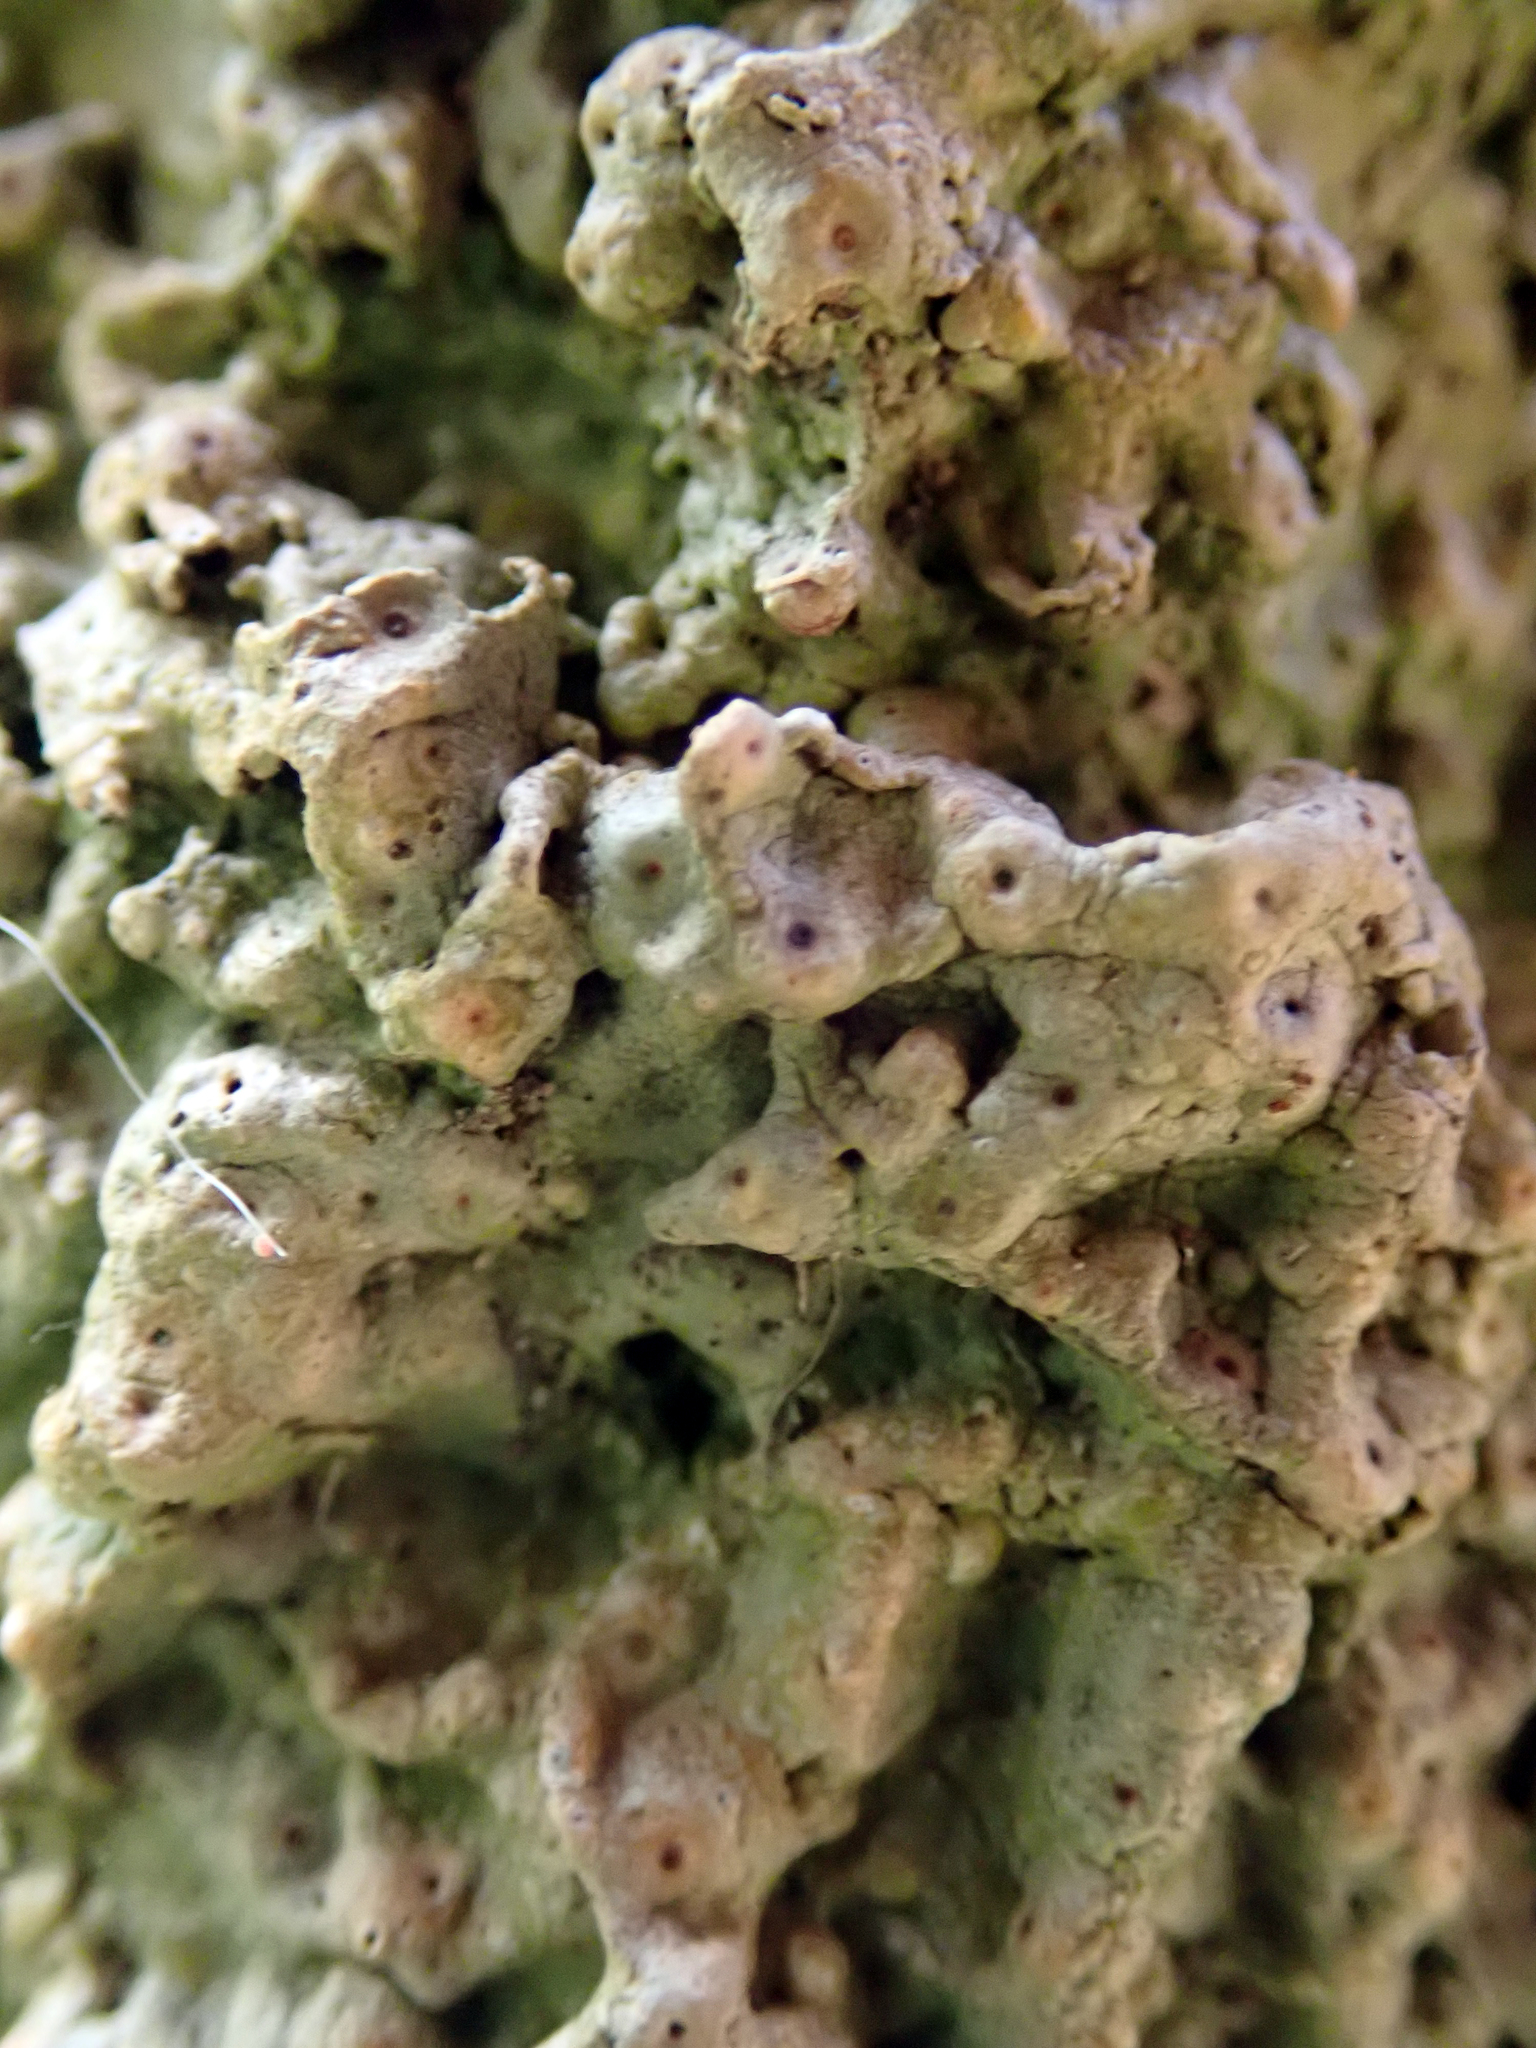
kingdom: Fungi
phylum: Ascomycota
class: Lecanoromycetes
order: Pertusariales
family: Pertusariaceae
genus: Porina
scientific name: Porina exocha
